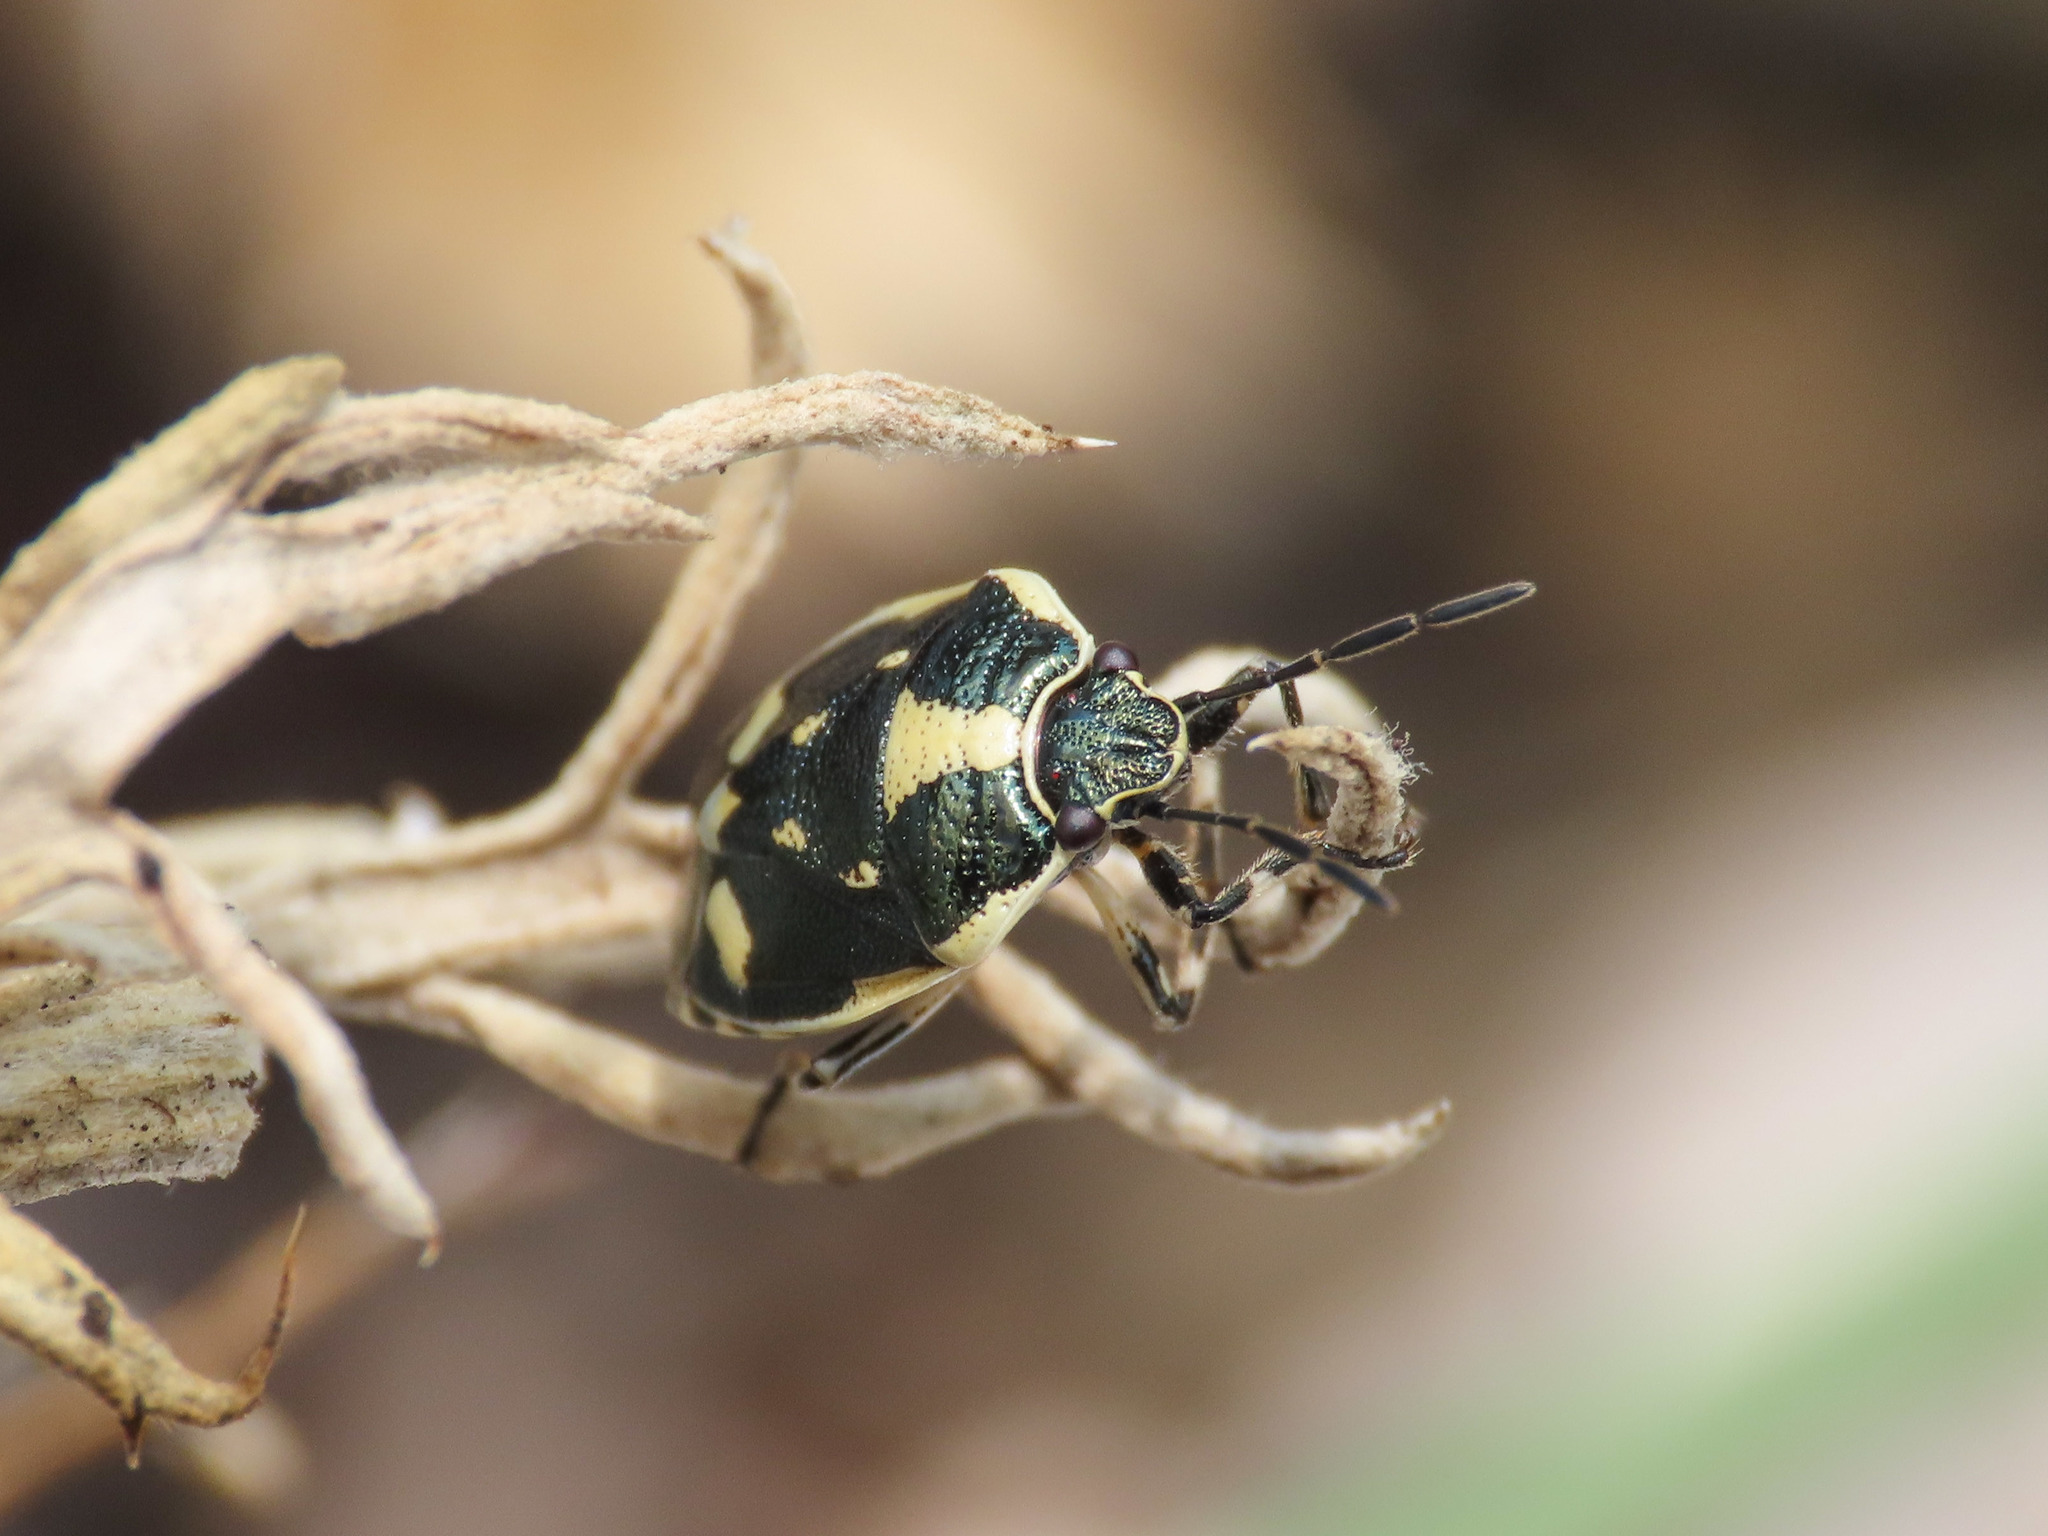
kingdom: Animalia
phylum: Arthropoda
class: Insecta
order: Hemiptera
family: Pentatomidae
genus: Eurydema
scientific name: Eurydema oleracea
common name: Cabbage bug
